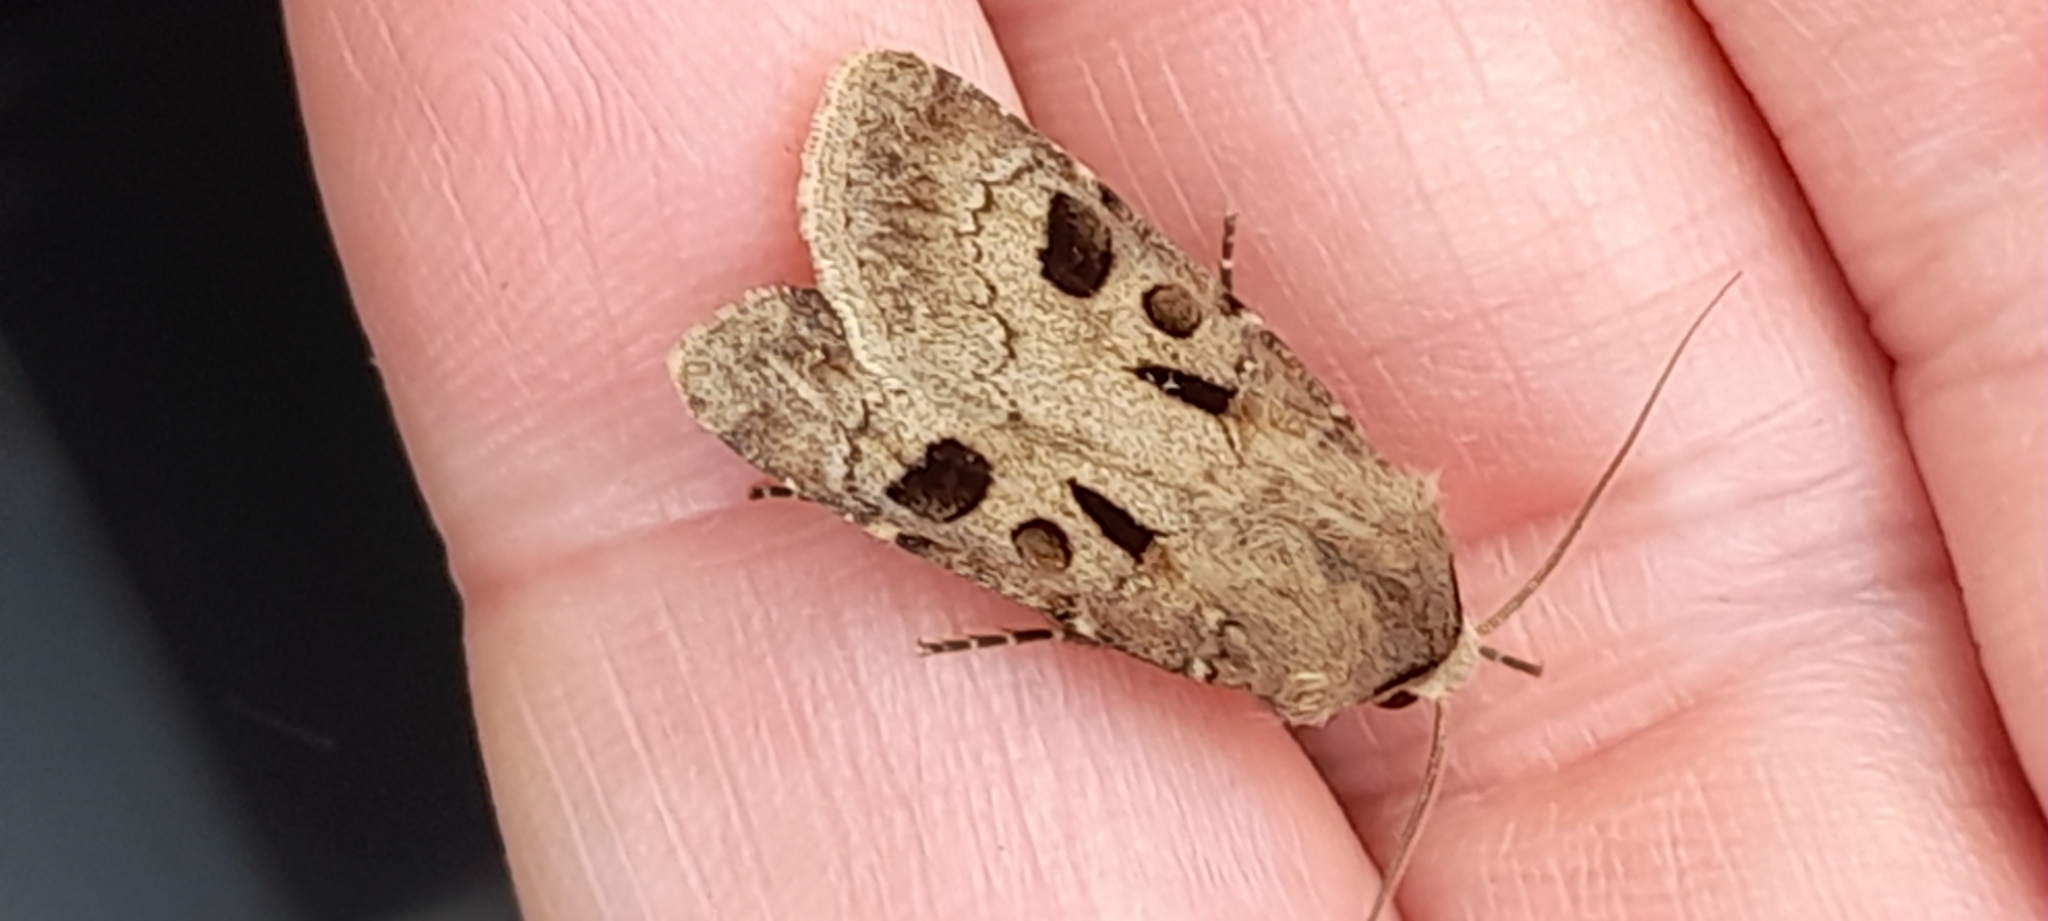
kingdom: Animalia
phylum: Arthropoda
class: Insecta
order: Lepidoptera
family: Noctuidae
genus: Agrotis
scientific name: Agrotis exclamationis
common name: Heart and dart
